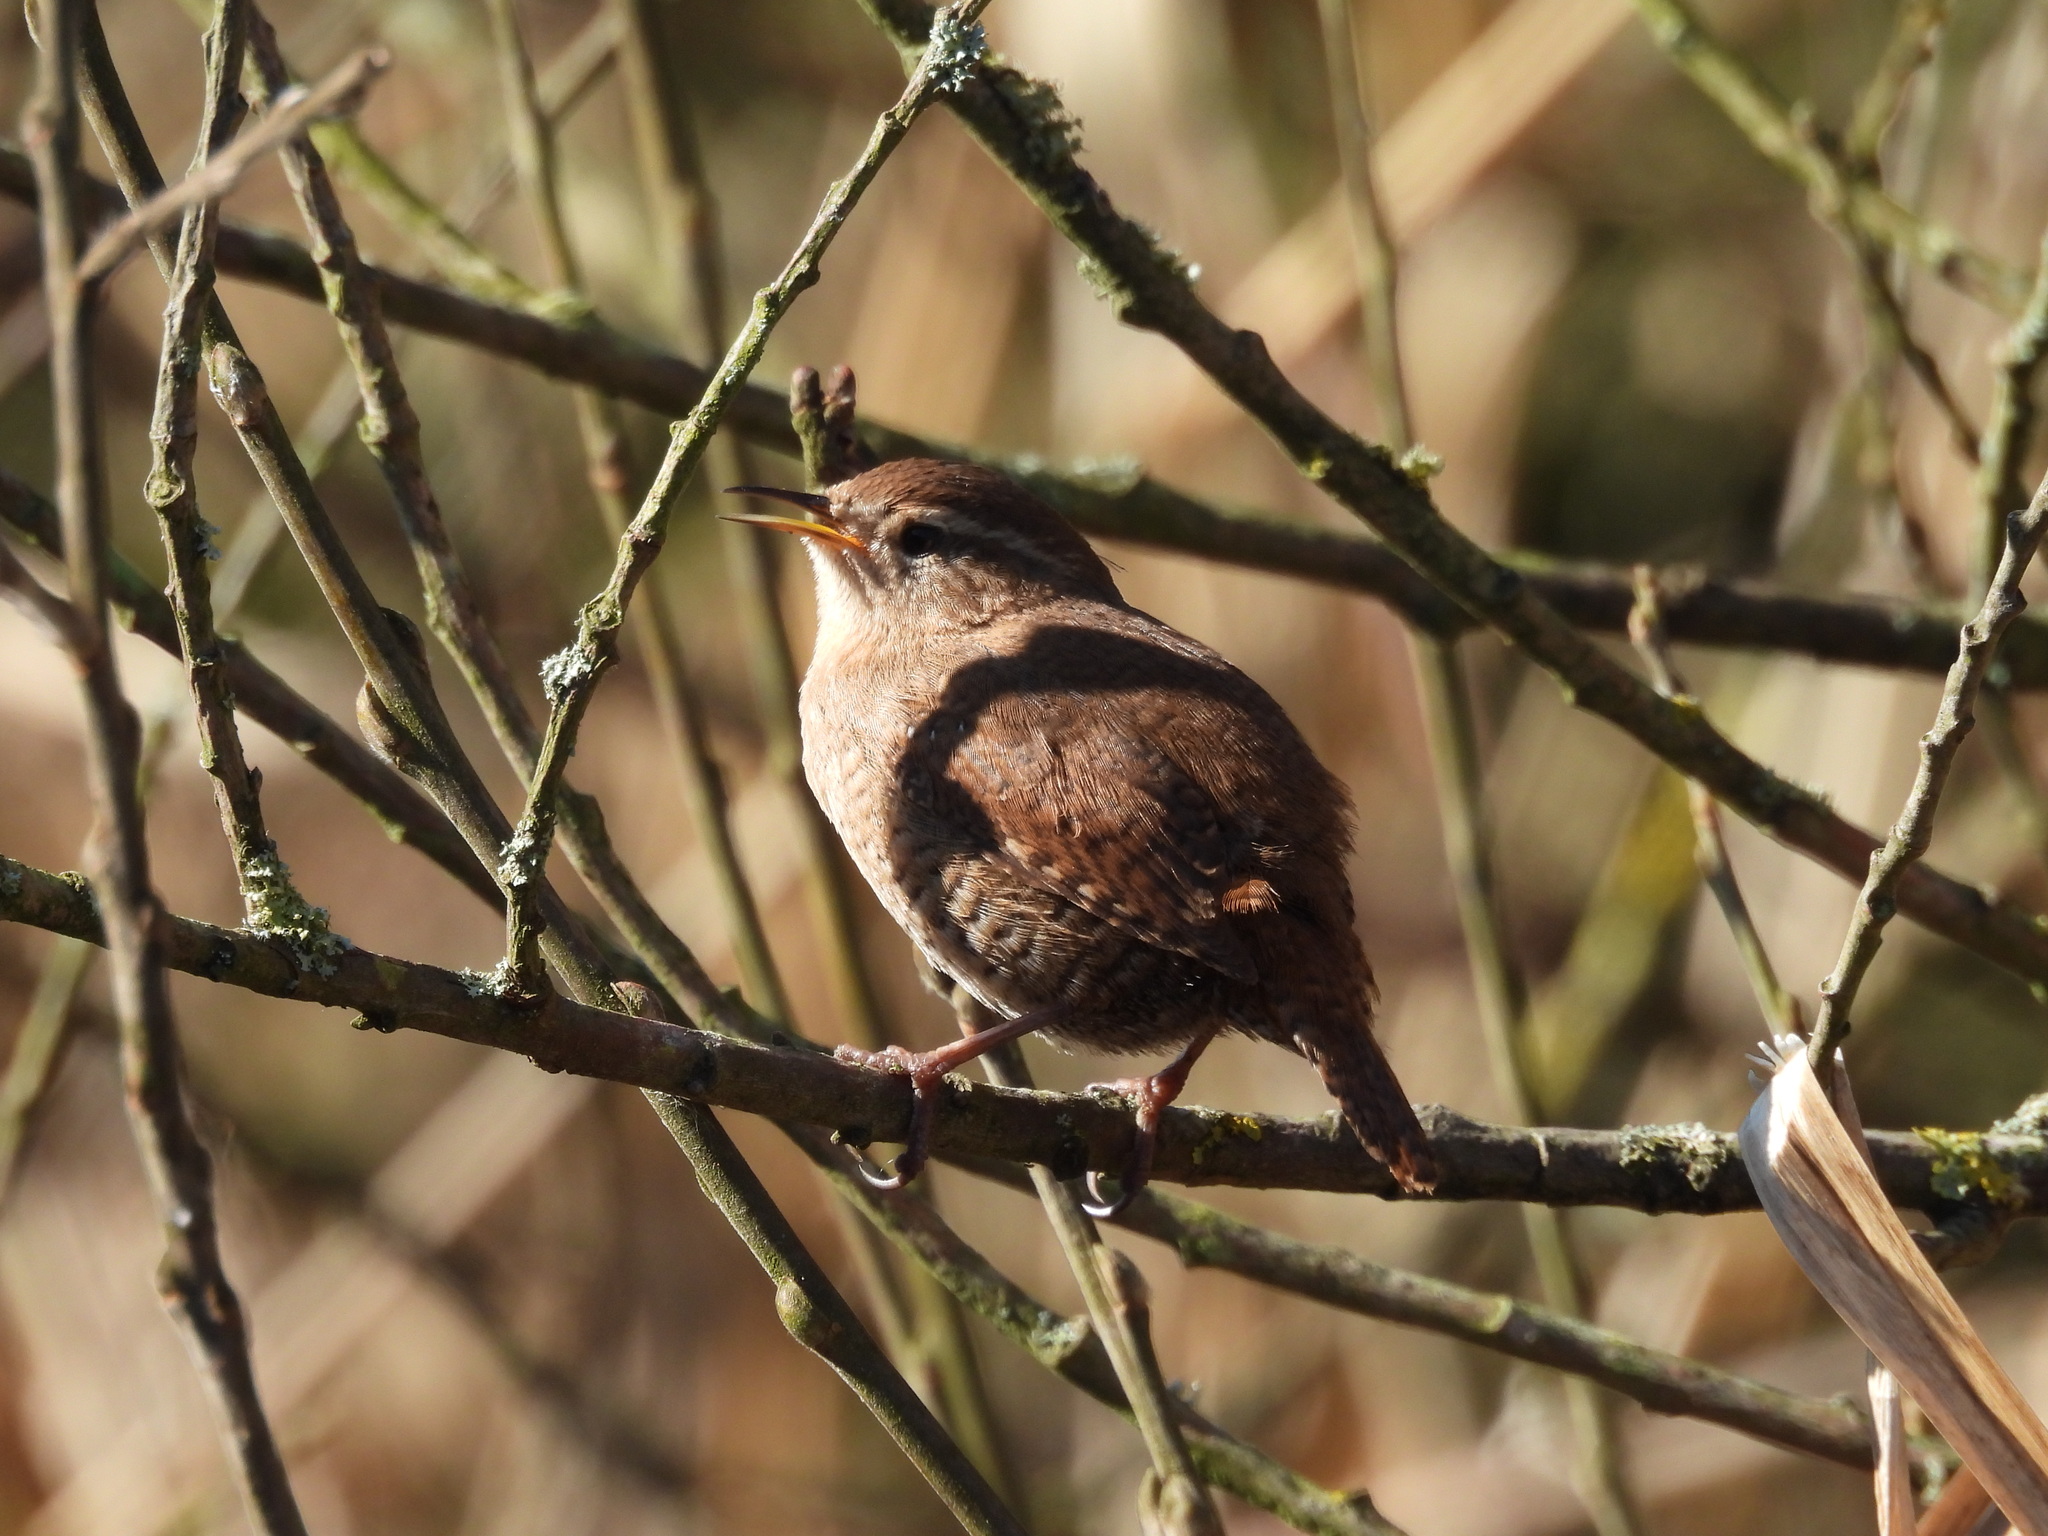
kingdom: Animalia
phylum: Chordata
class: Aves
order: Passeriformes
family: Troglodytidae
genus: Troglodytes
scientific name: Troglodytes troglodytes
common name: Eurasian wren
